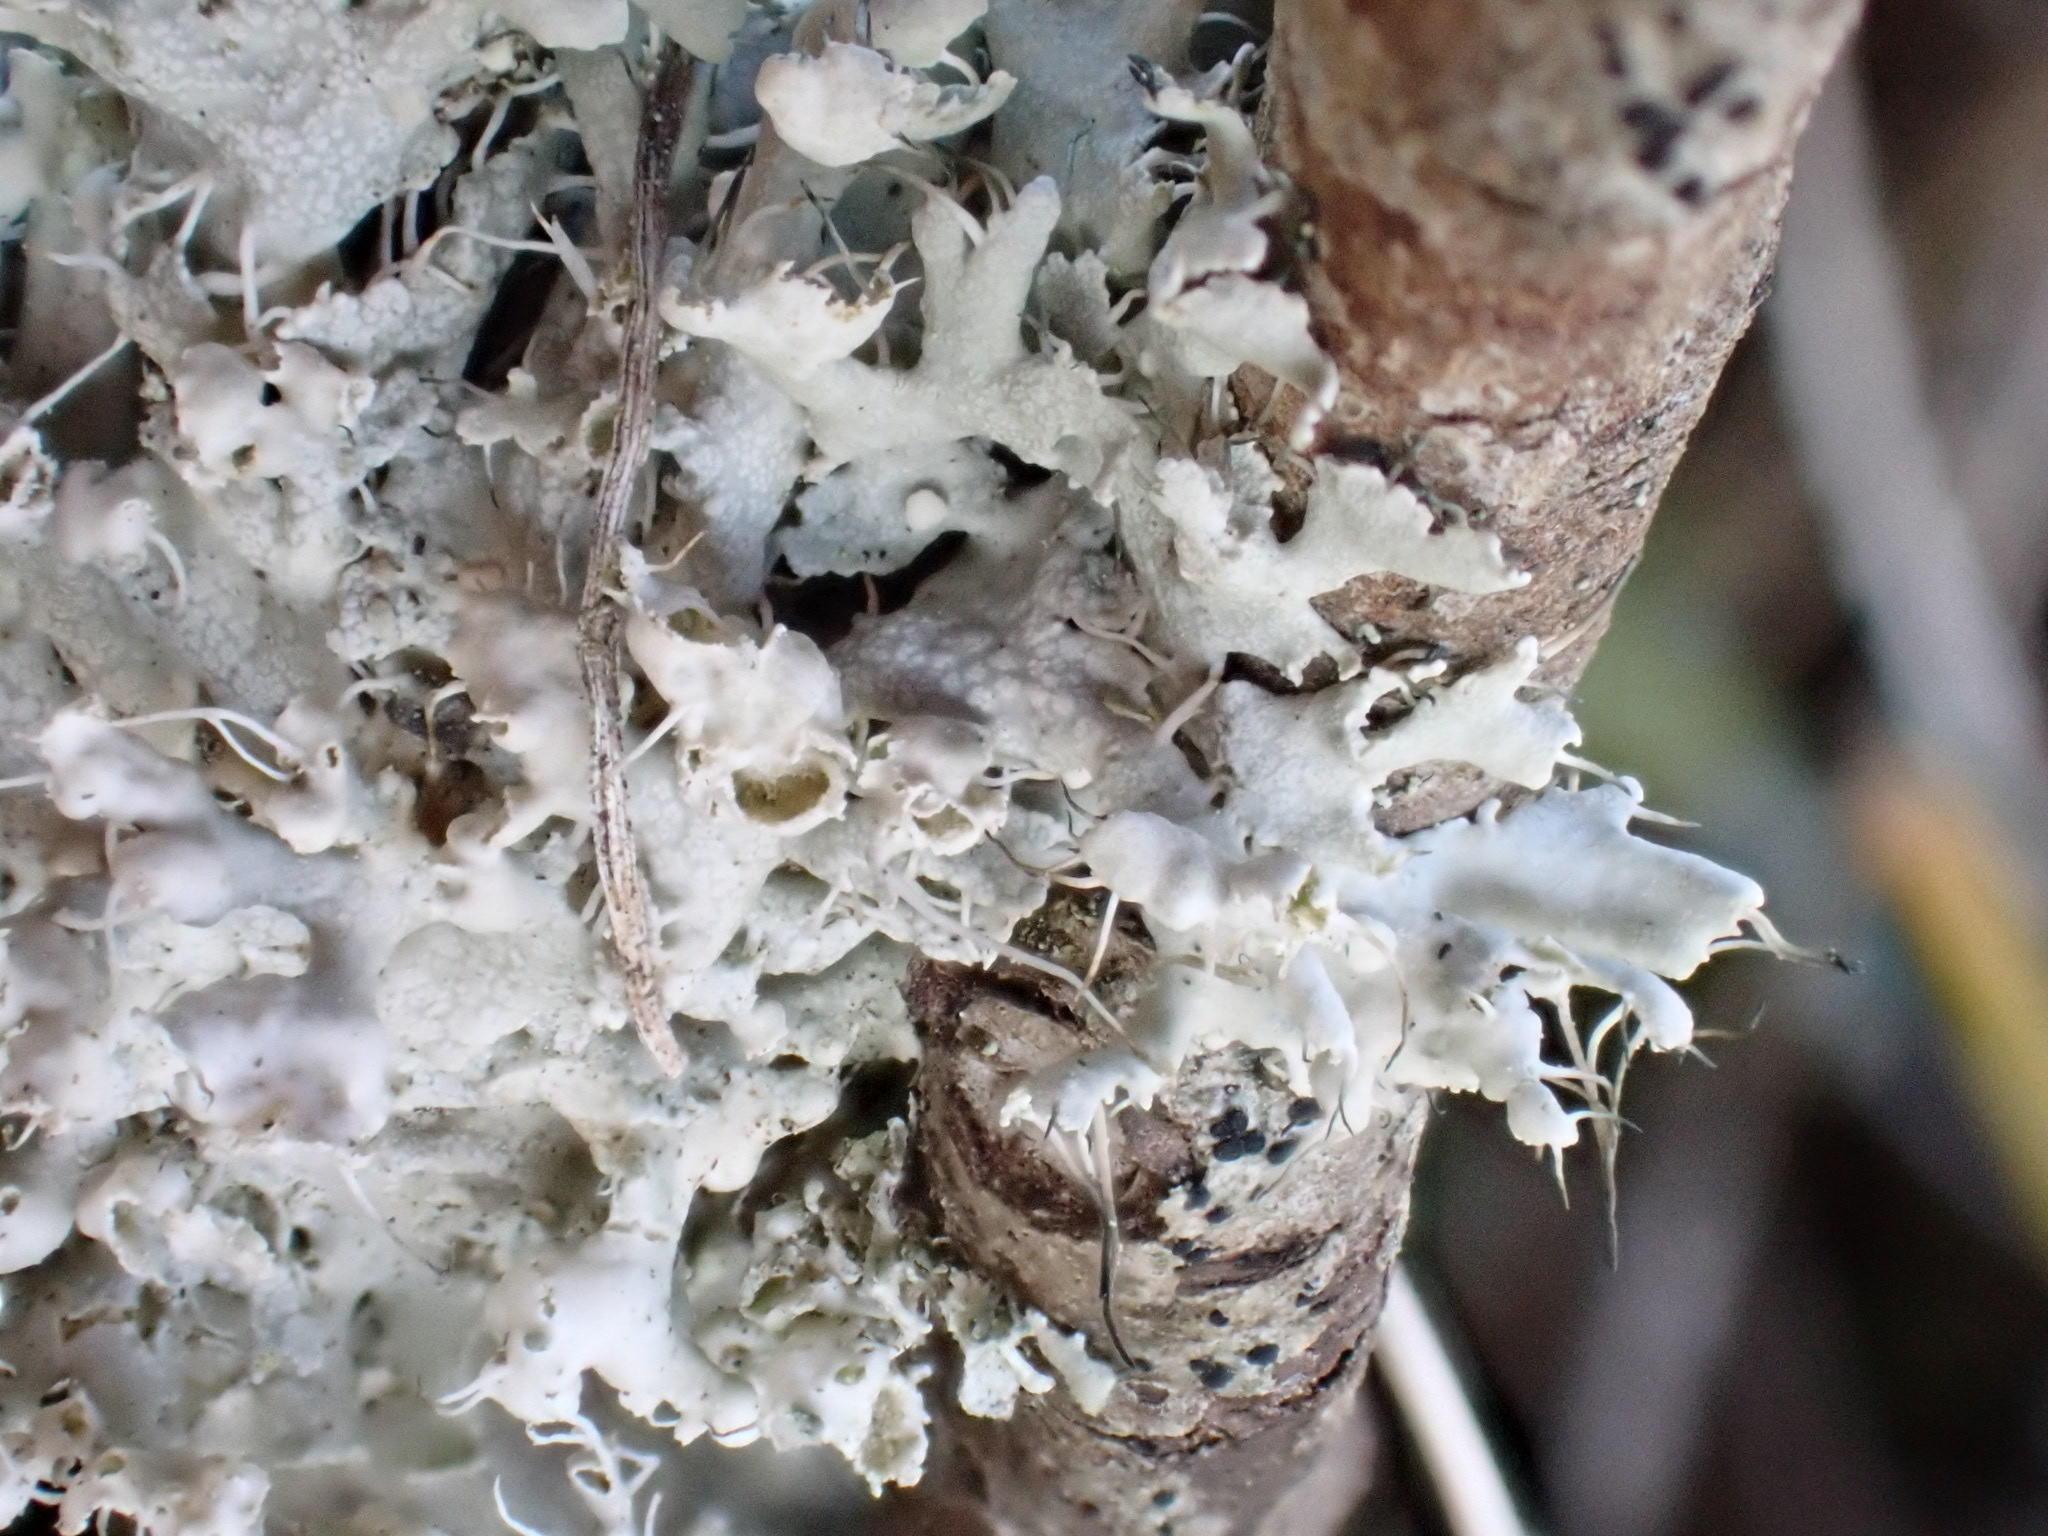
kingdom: Fungi
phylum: Ascomycota
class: Lecanoromycetes
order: Caliciales
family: Physciaceae
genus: Physcia
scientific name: Physcia adscendens
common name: Hooded rosette lichen
